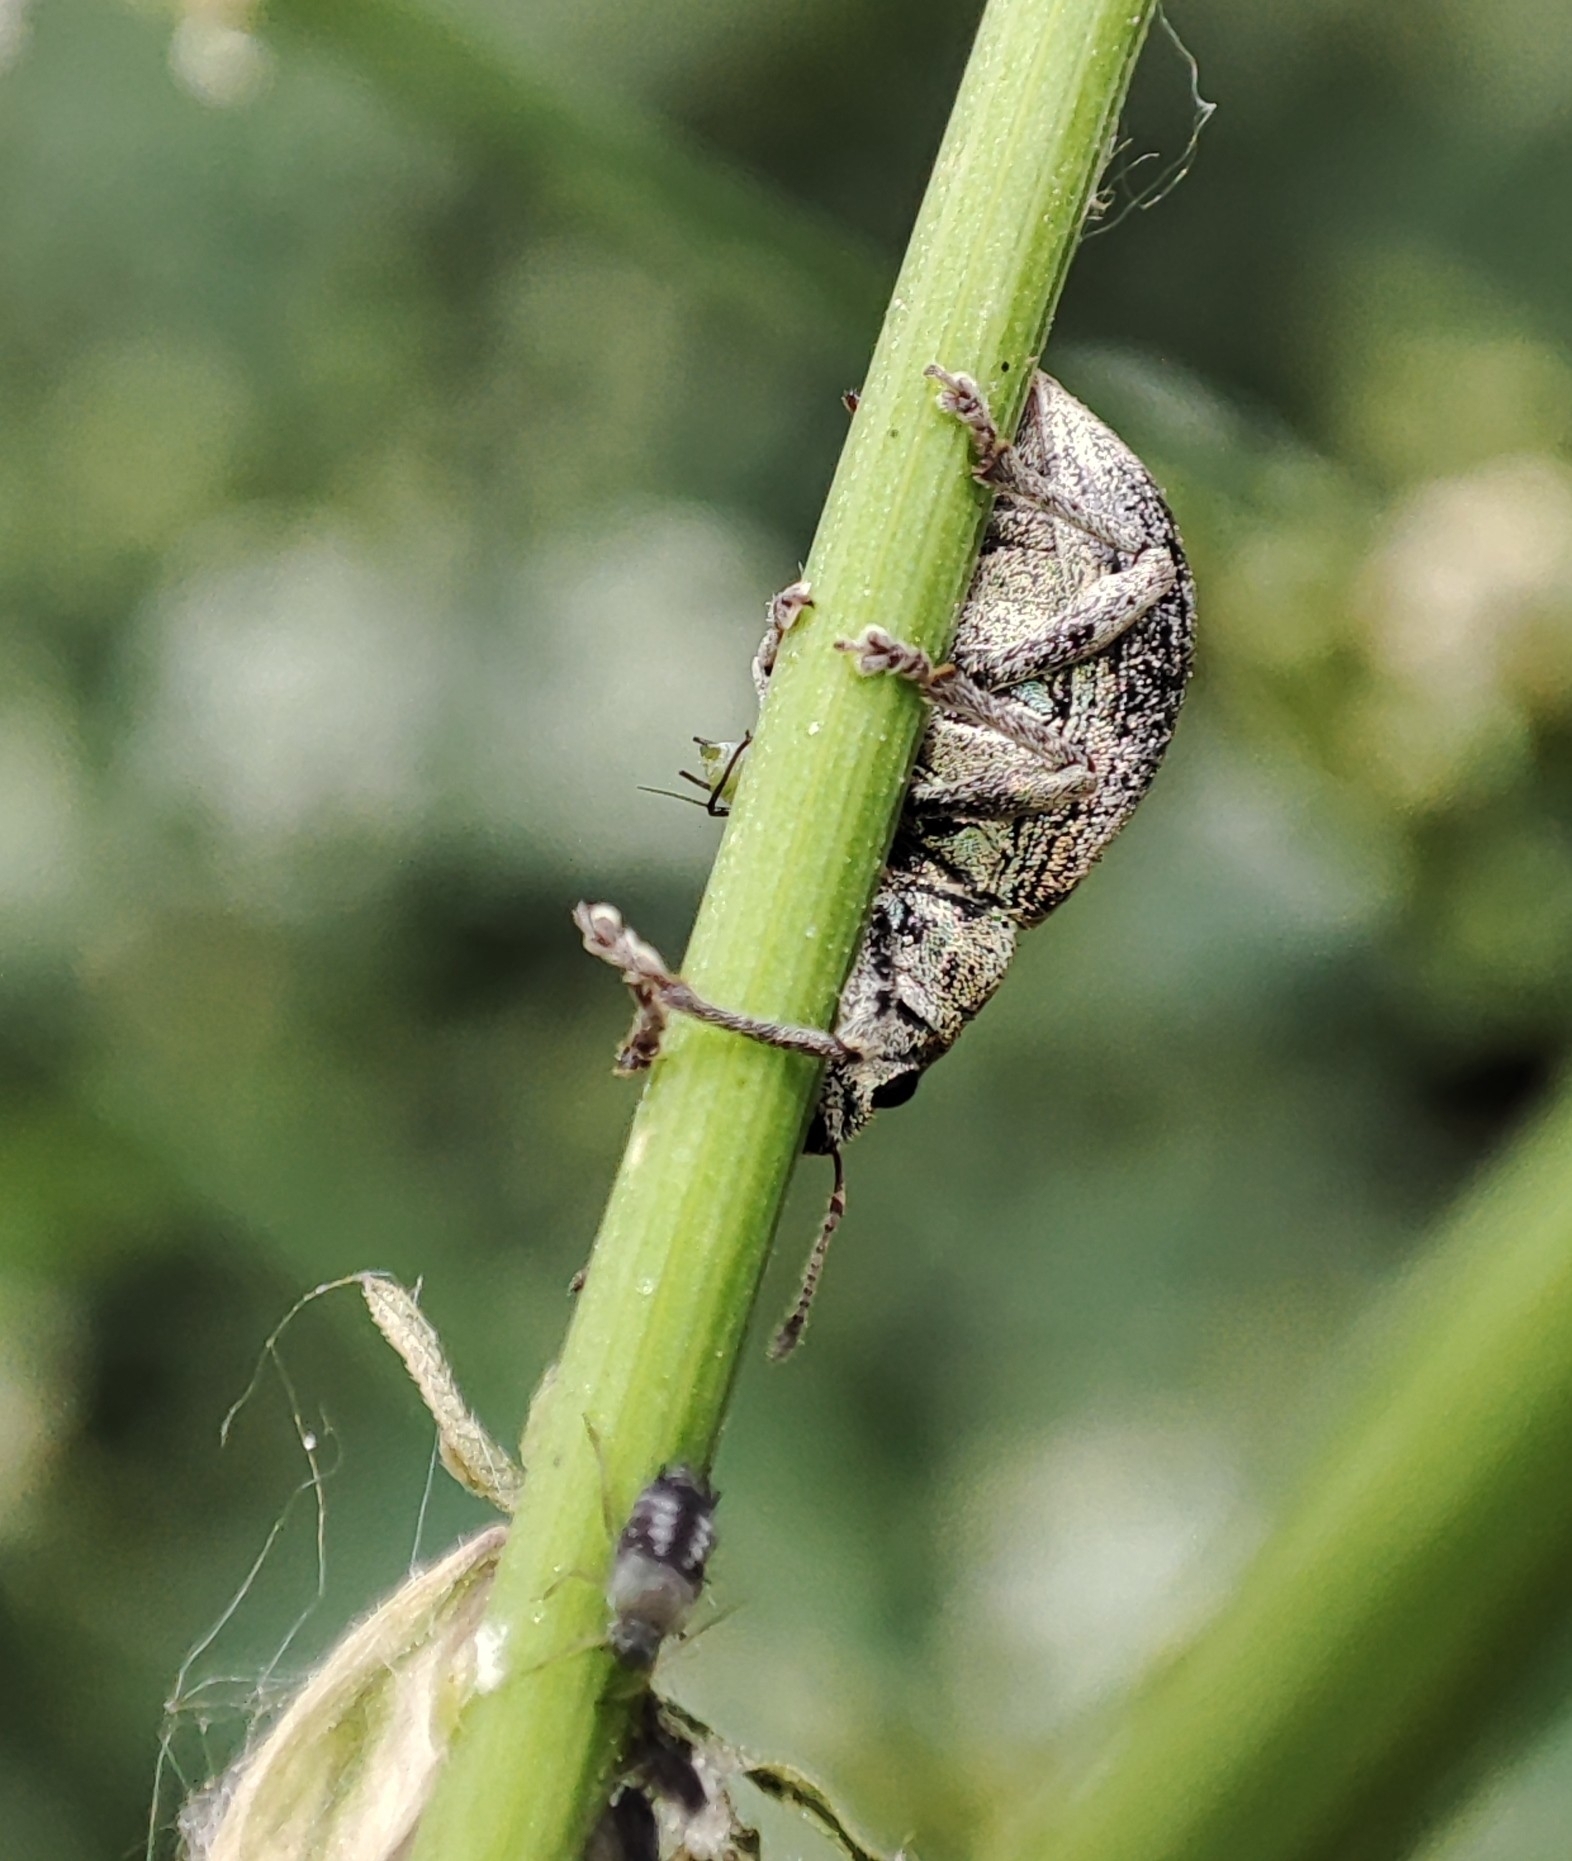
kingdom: Animalia
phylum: Arthropoda
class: Insecta
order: Coleoptera
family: Curculionidae
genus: Sciaphobus
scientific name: Sciaphobus squalidus
